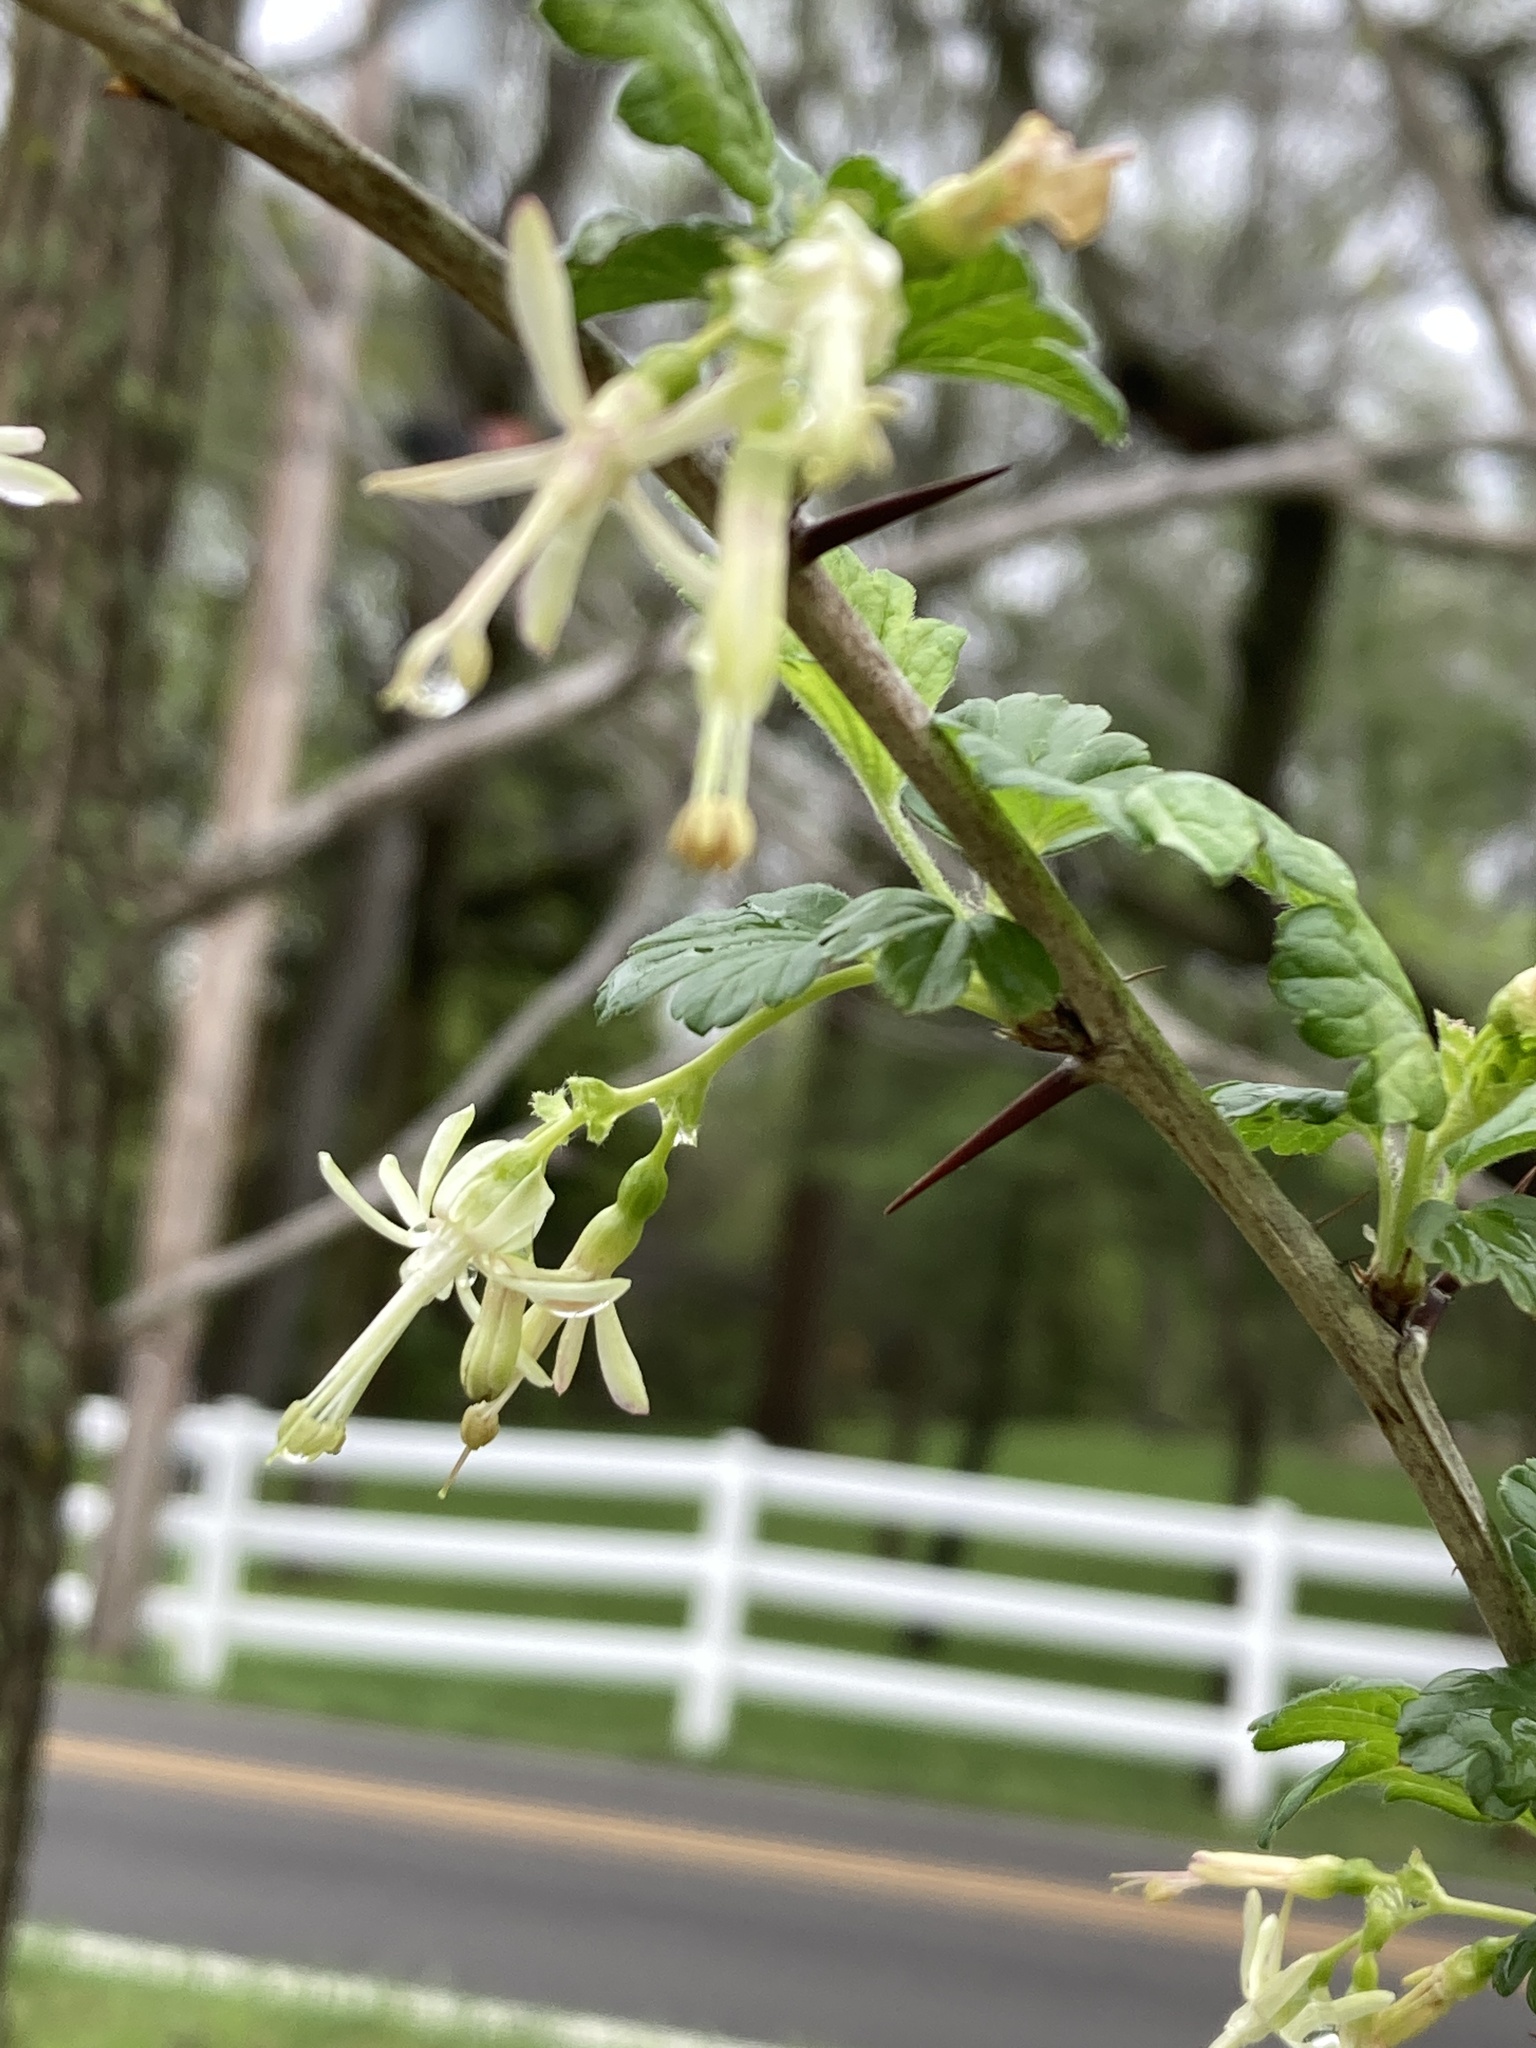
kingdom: Plantae
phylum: Tracheophyta
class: Magnoliopsida
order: Saxifragales
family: Grossulariaceae
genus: Ribes
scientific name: Ribes missouriense
